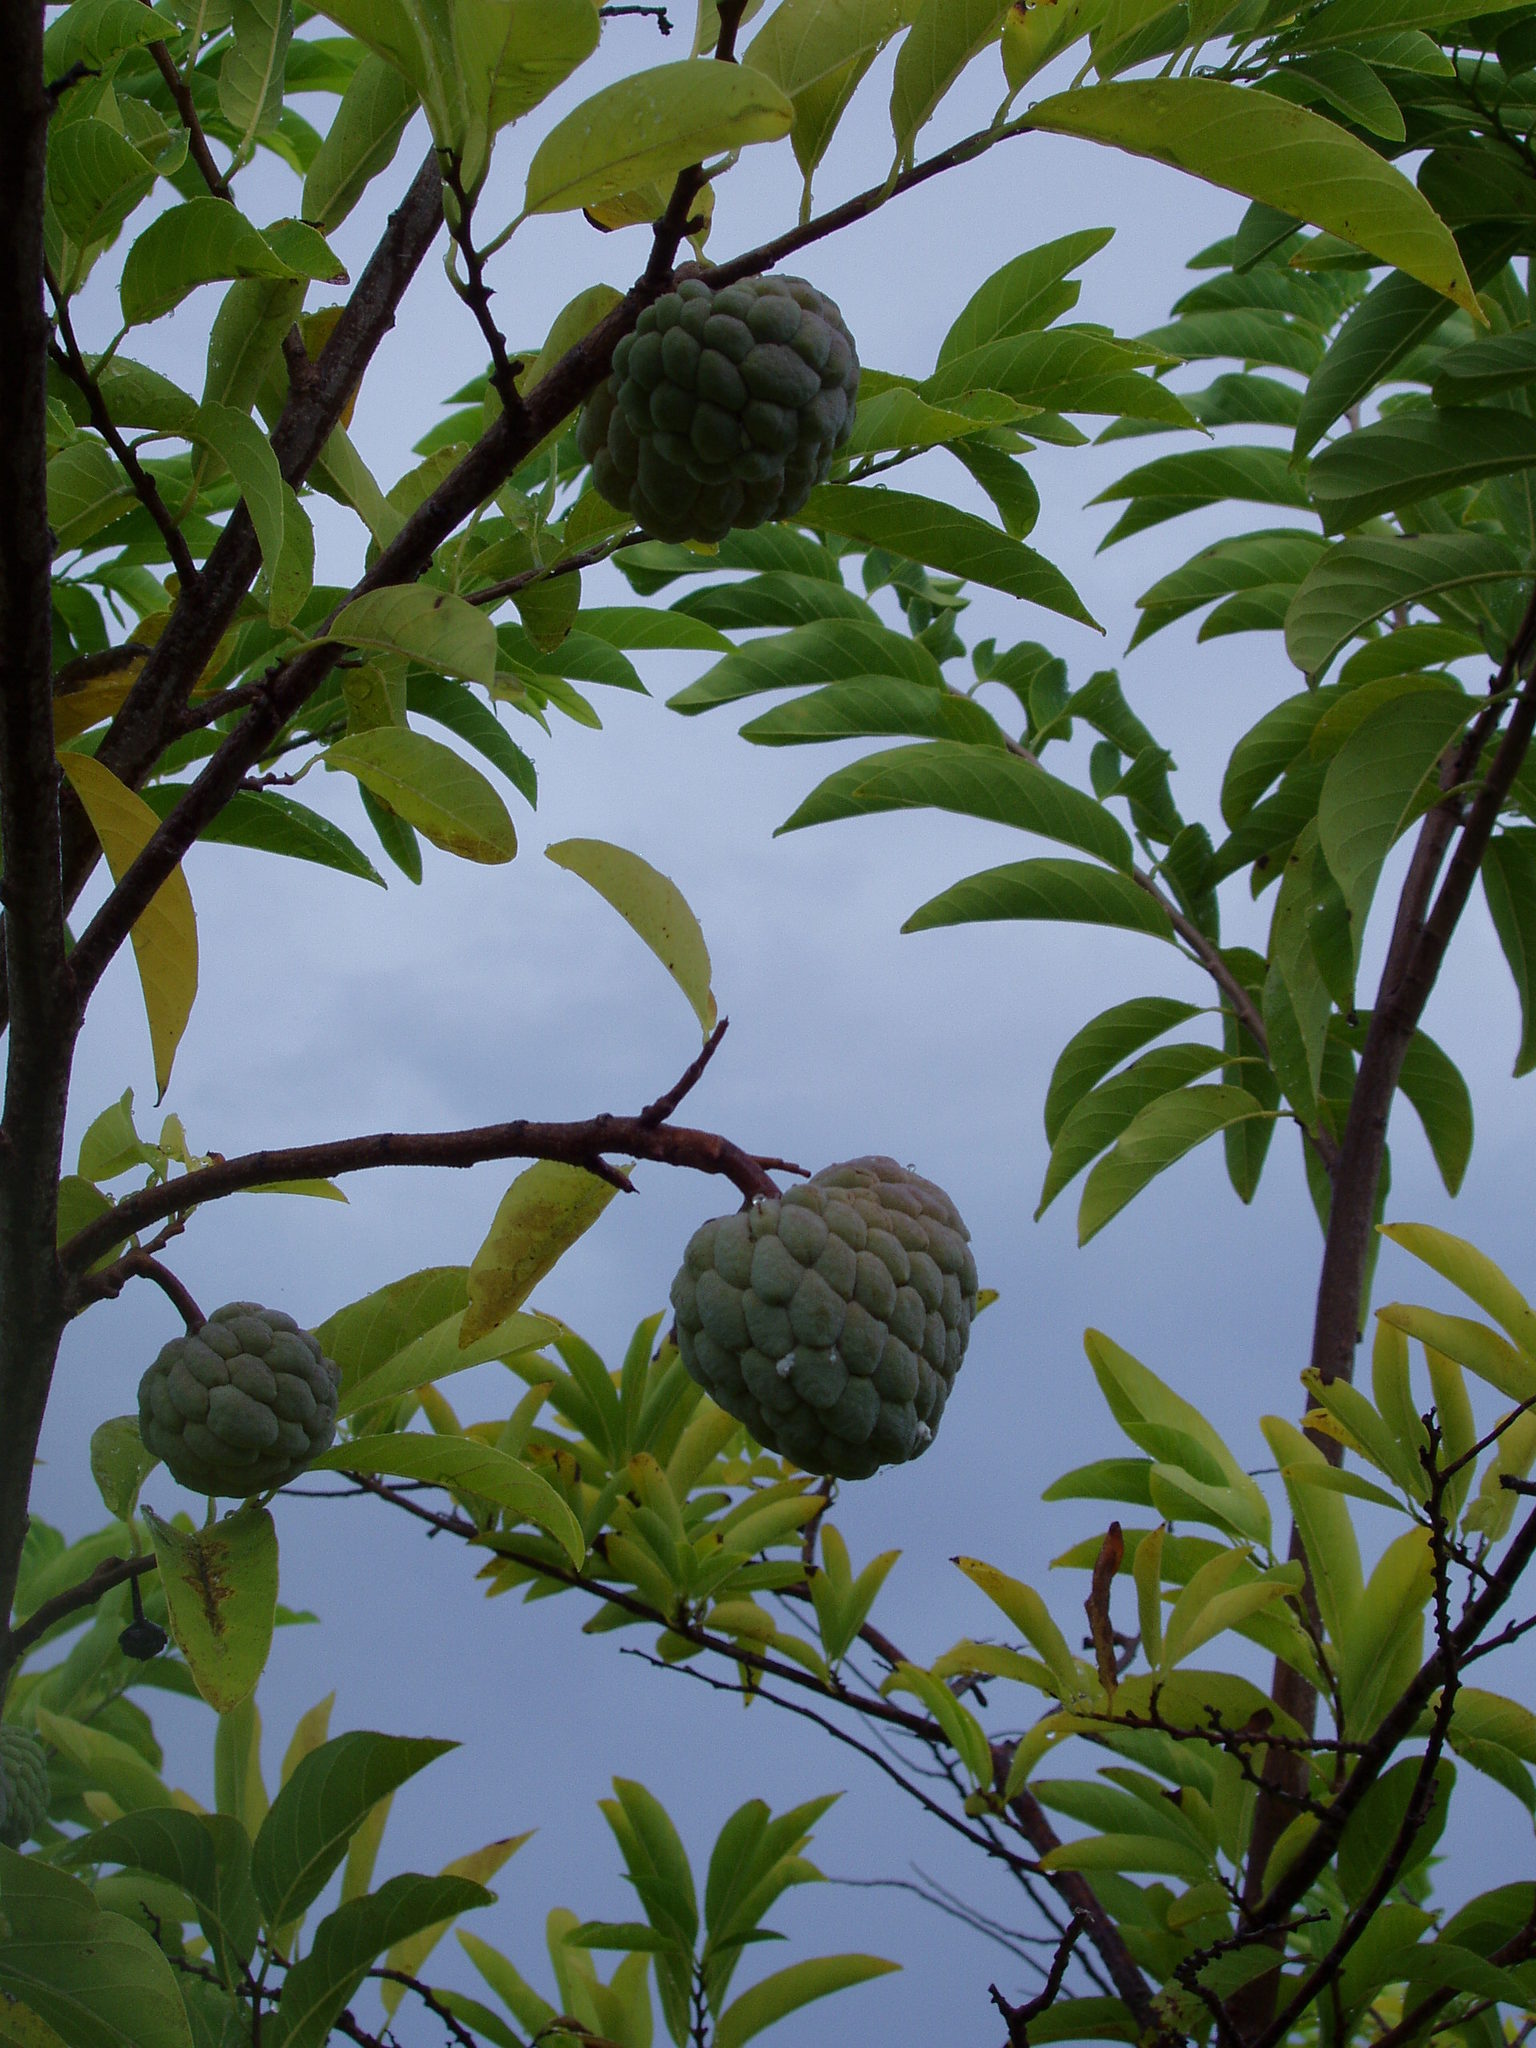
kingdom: Plantae
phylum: Tracheophyta
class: Magnoliopsida
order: Magnoliales
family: Annonaceae
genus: Annona
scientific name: Annona squamosa
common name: Custard-apple
